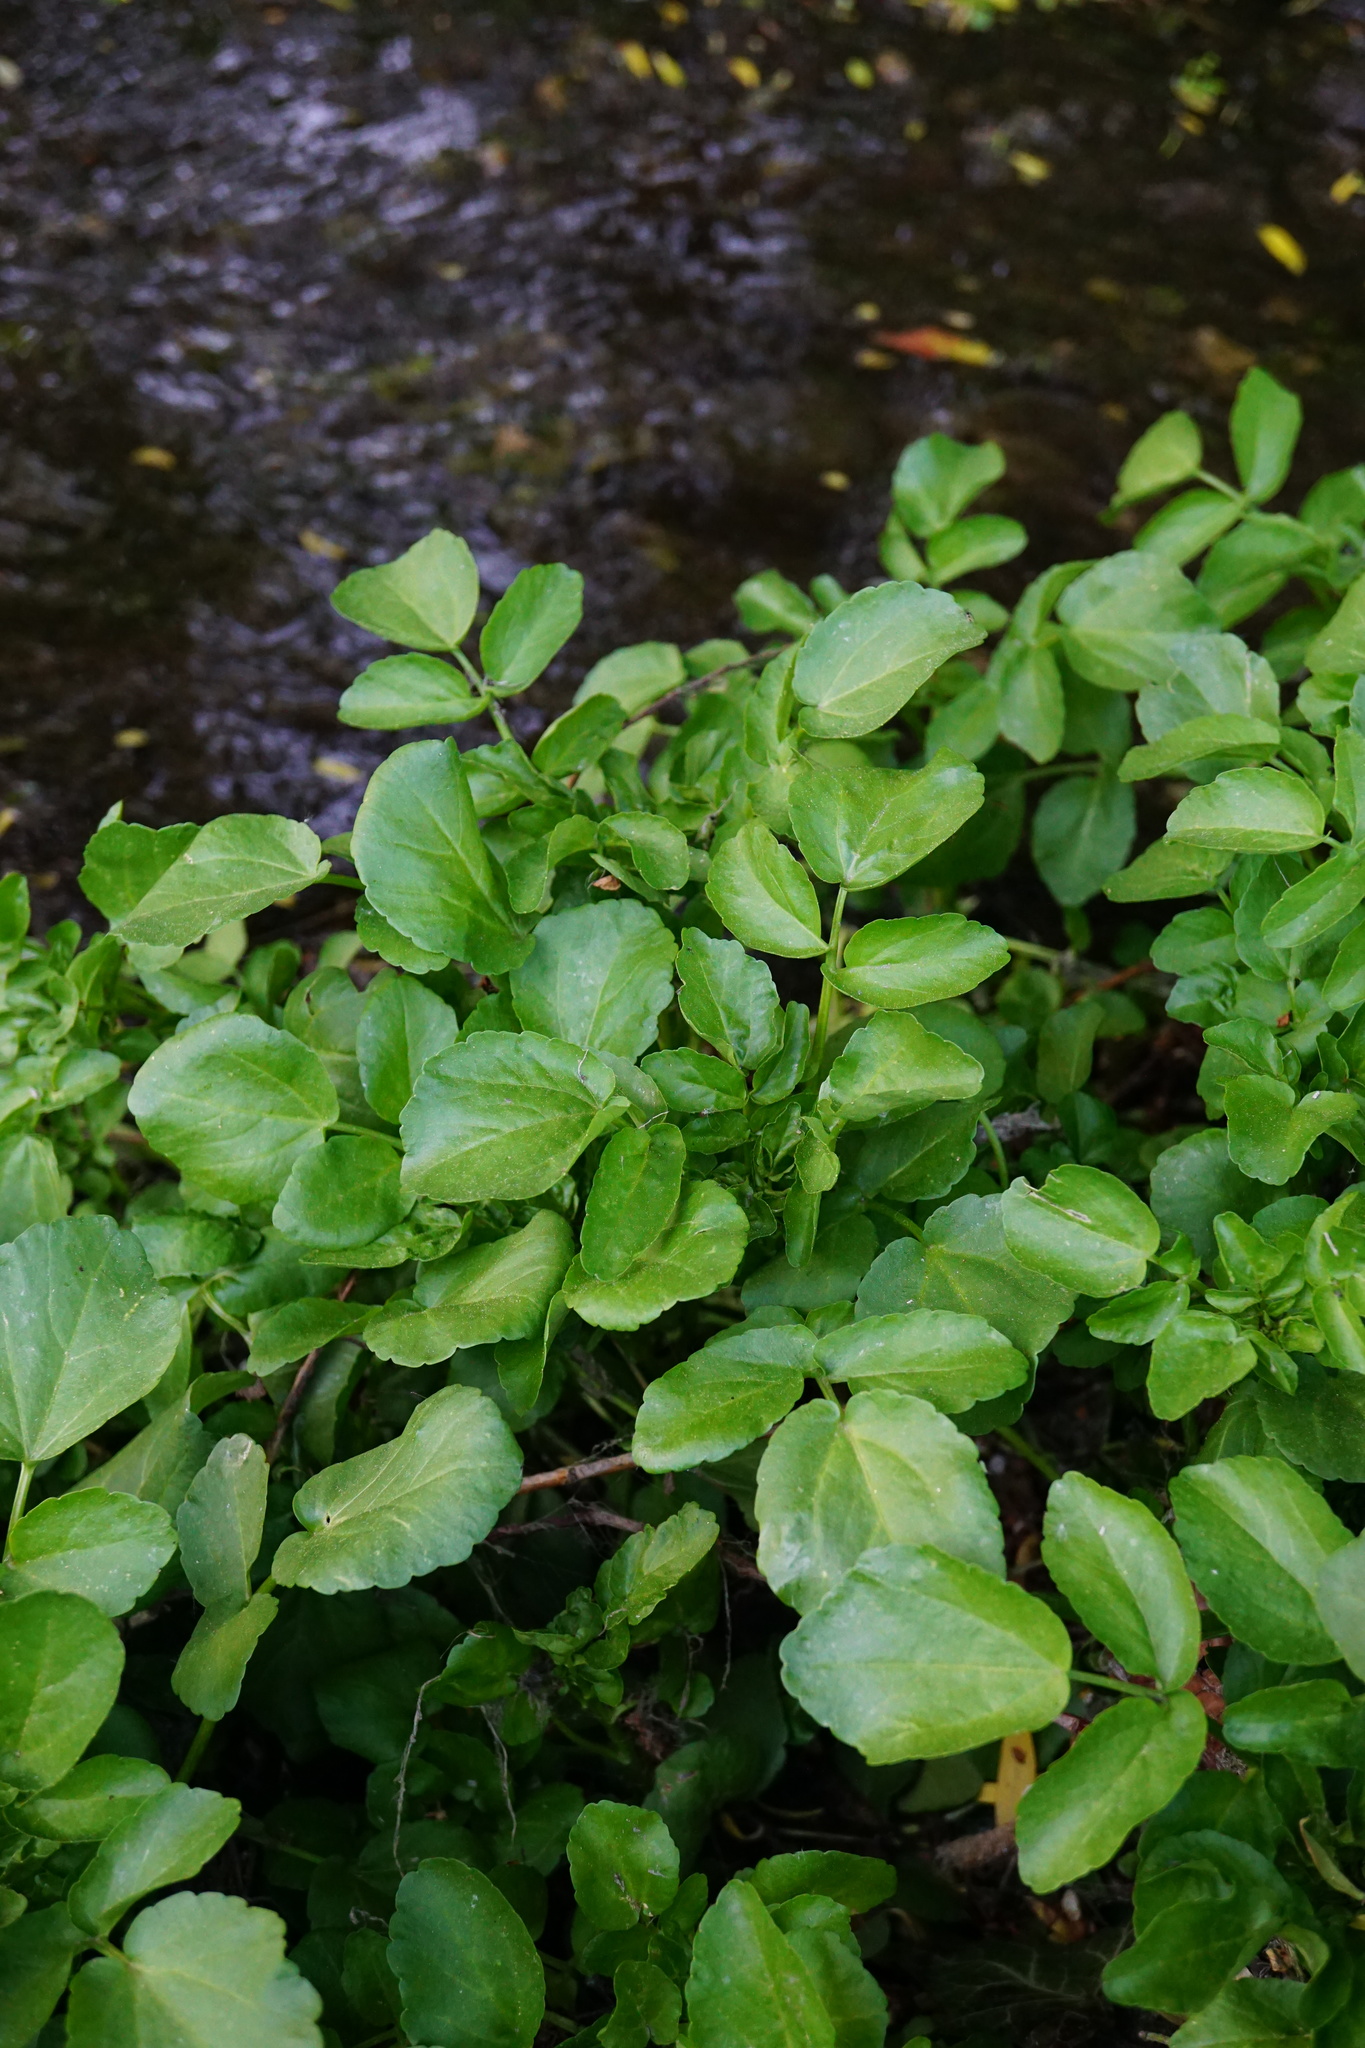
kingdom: Plantae
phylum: Tracheophyta
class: Magnoliopsida
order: Brassicales
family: Brassicaceae
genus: Nasturtium
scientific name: Nasturtium officinale
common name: Watercress
